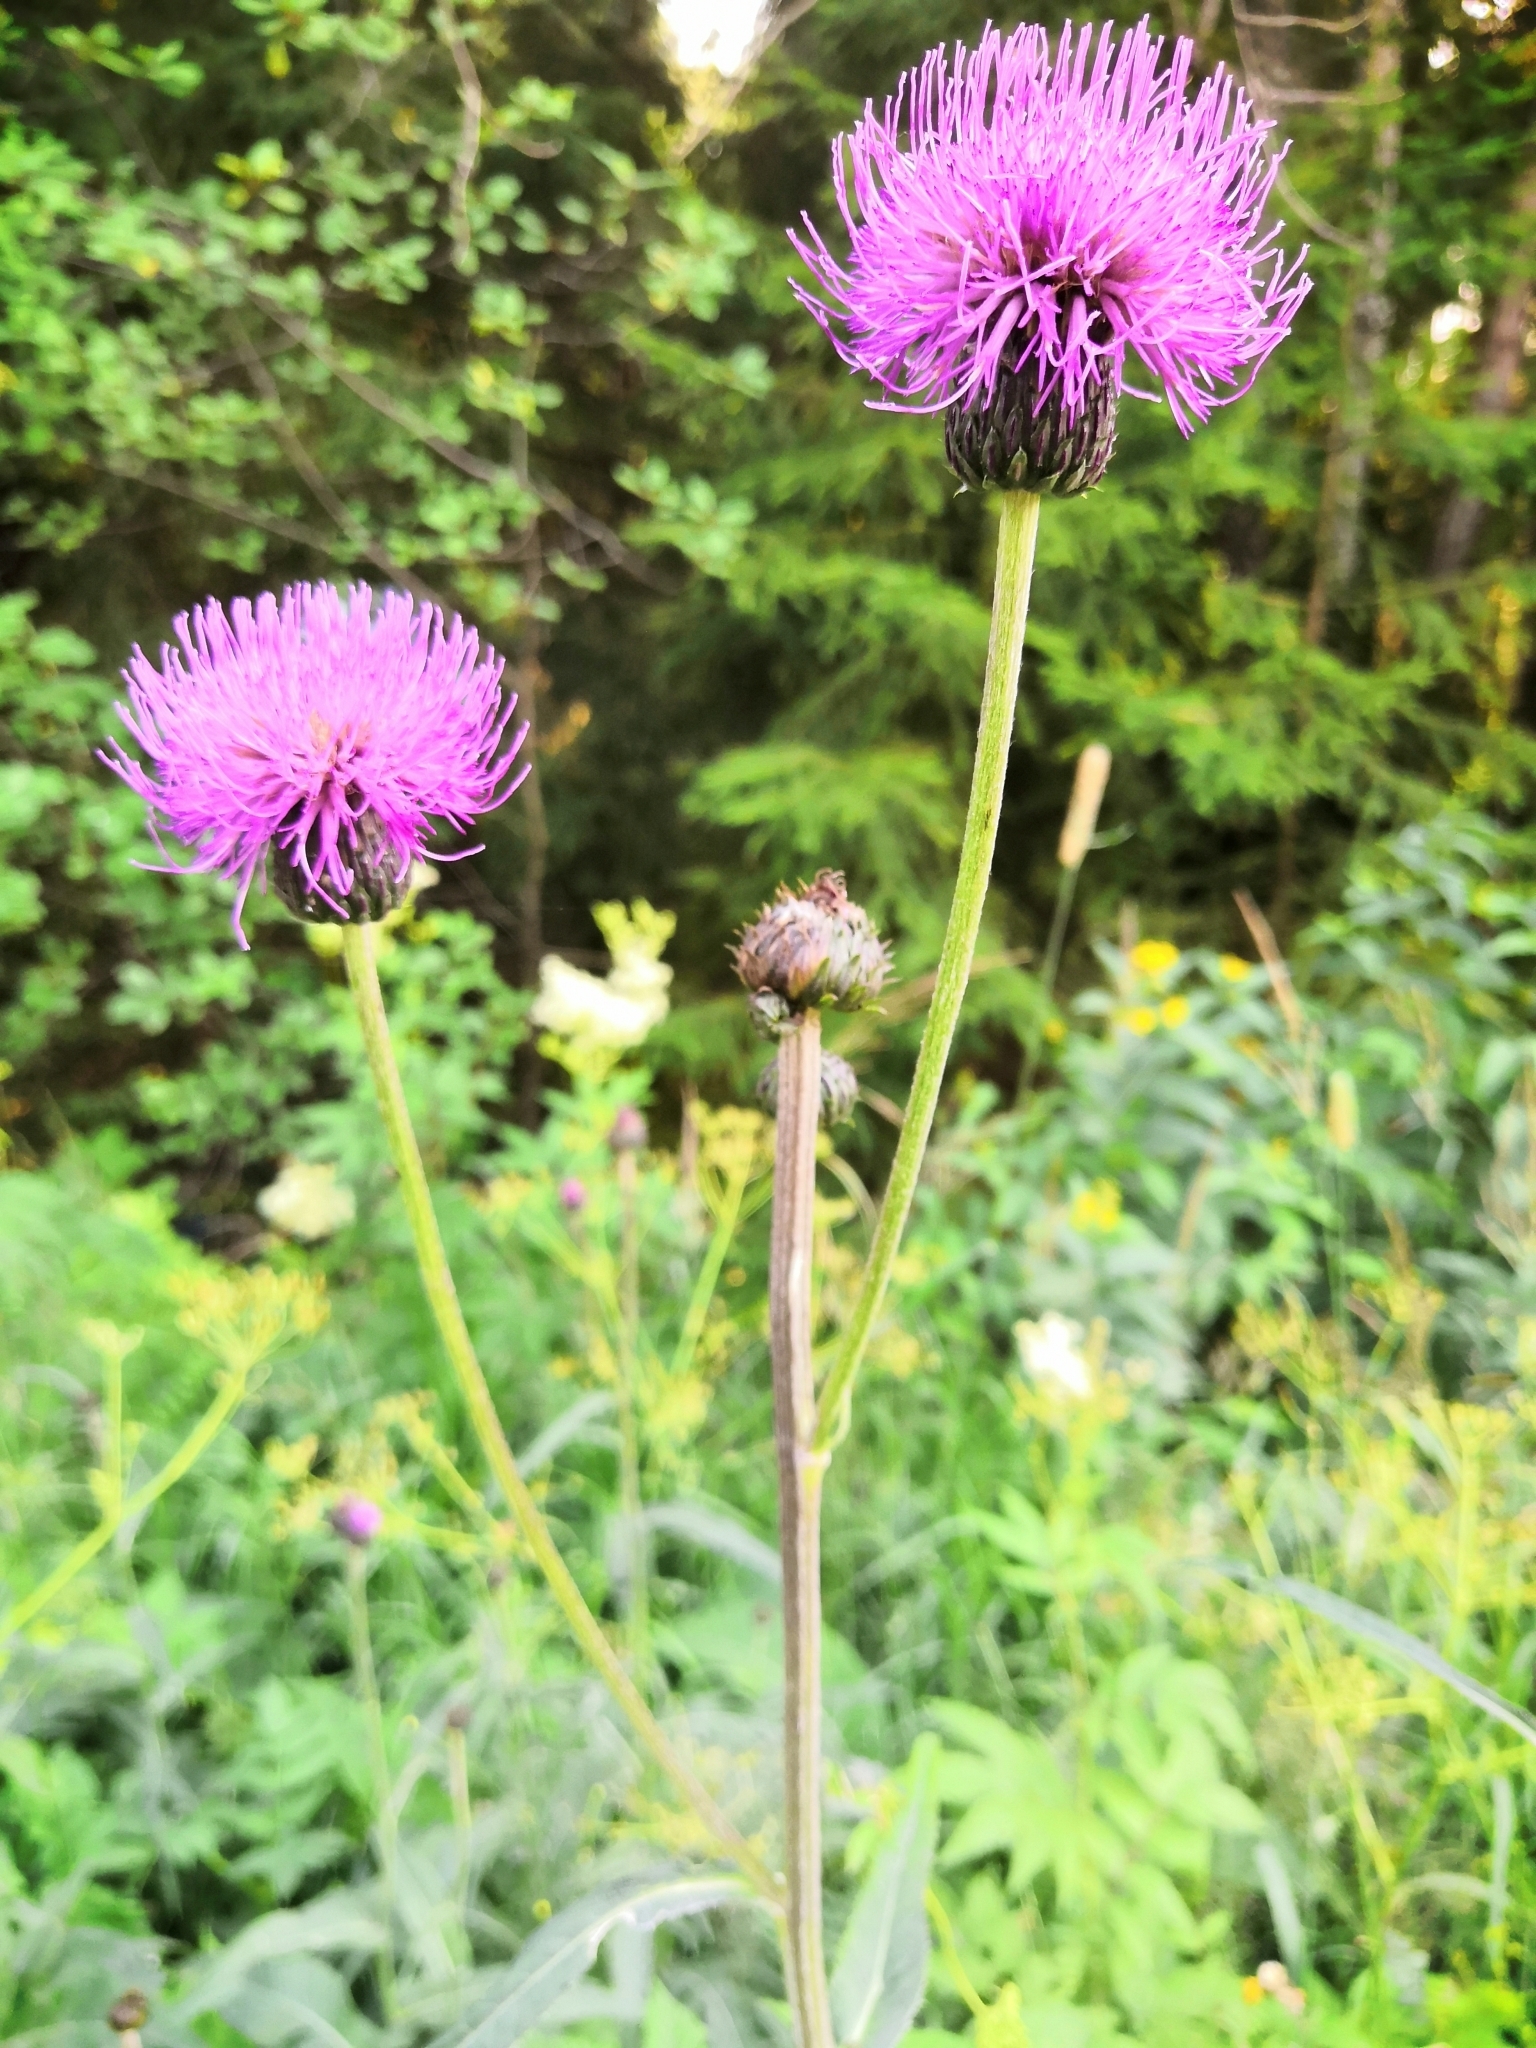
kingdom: Plantae
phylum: Tracheophyta
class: Magnoliopsida
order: Asterales
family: Asteraceae
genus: Cirsium
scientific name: Cirsium heterophyllum
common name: Melancholy thistle
